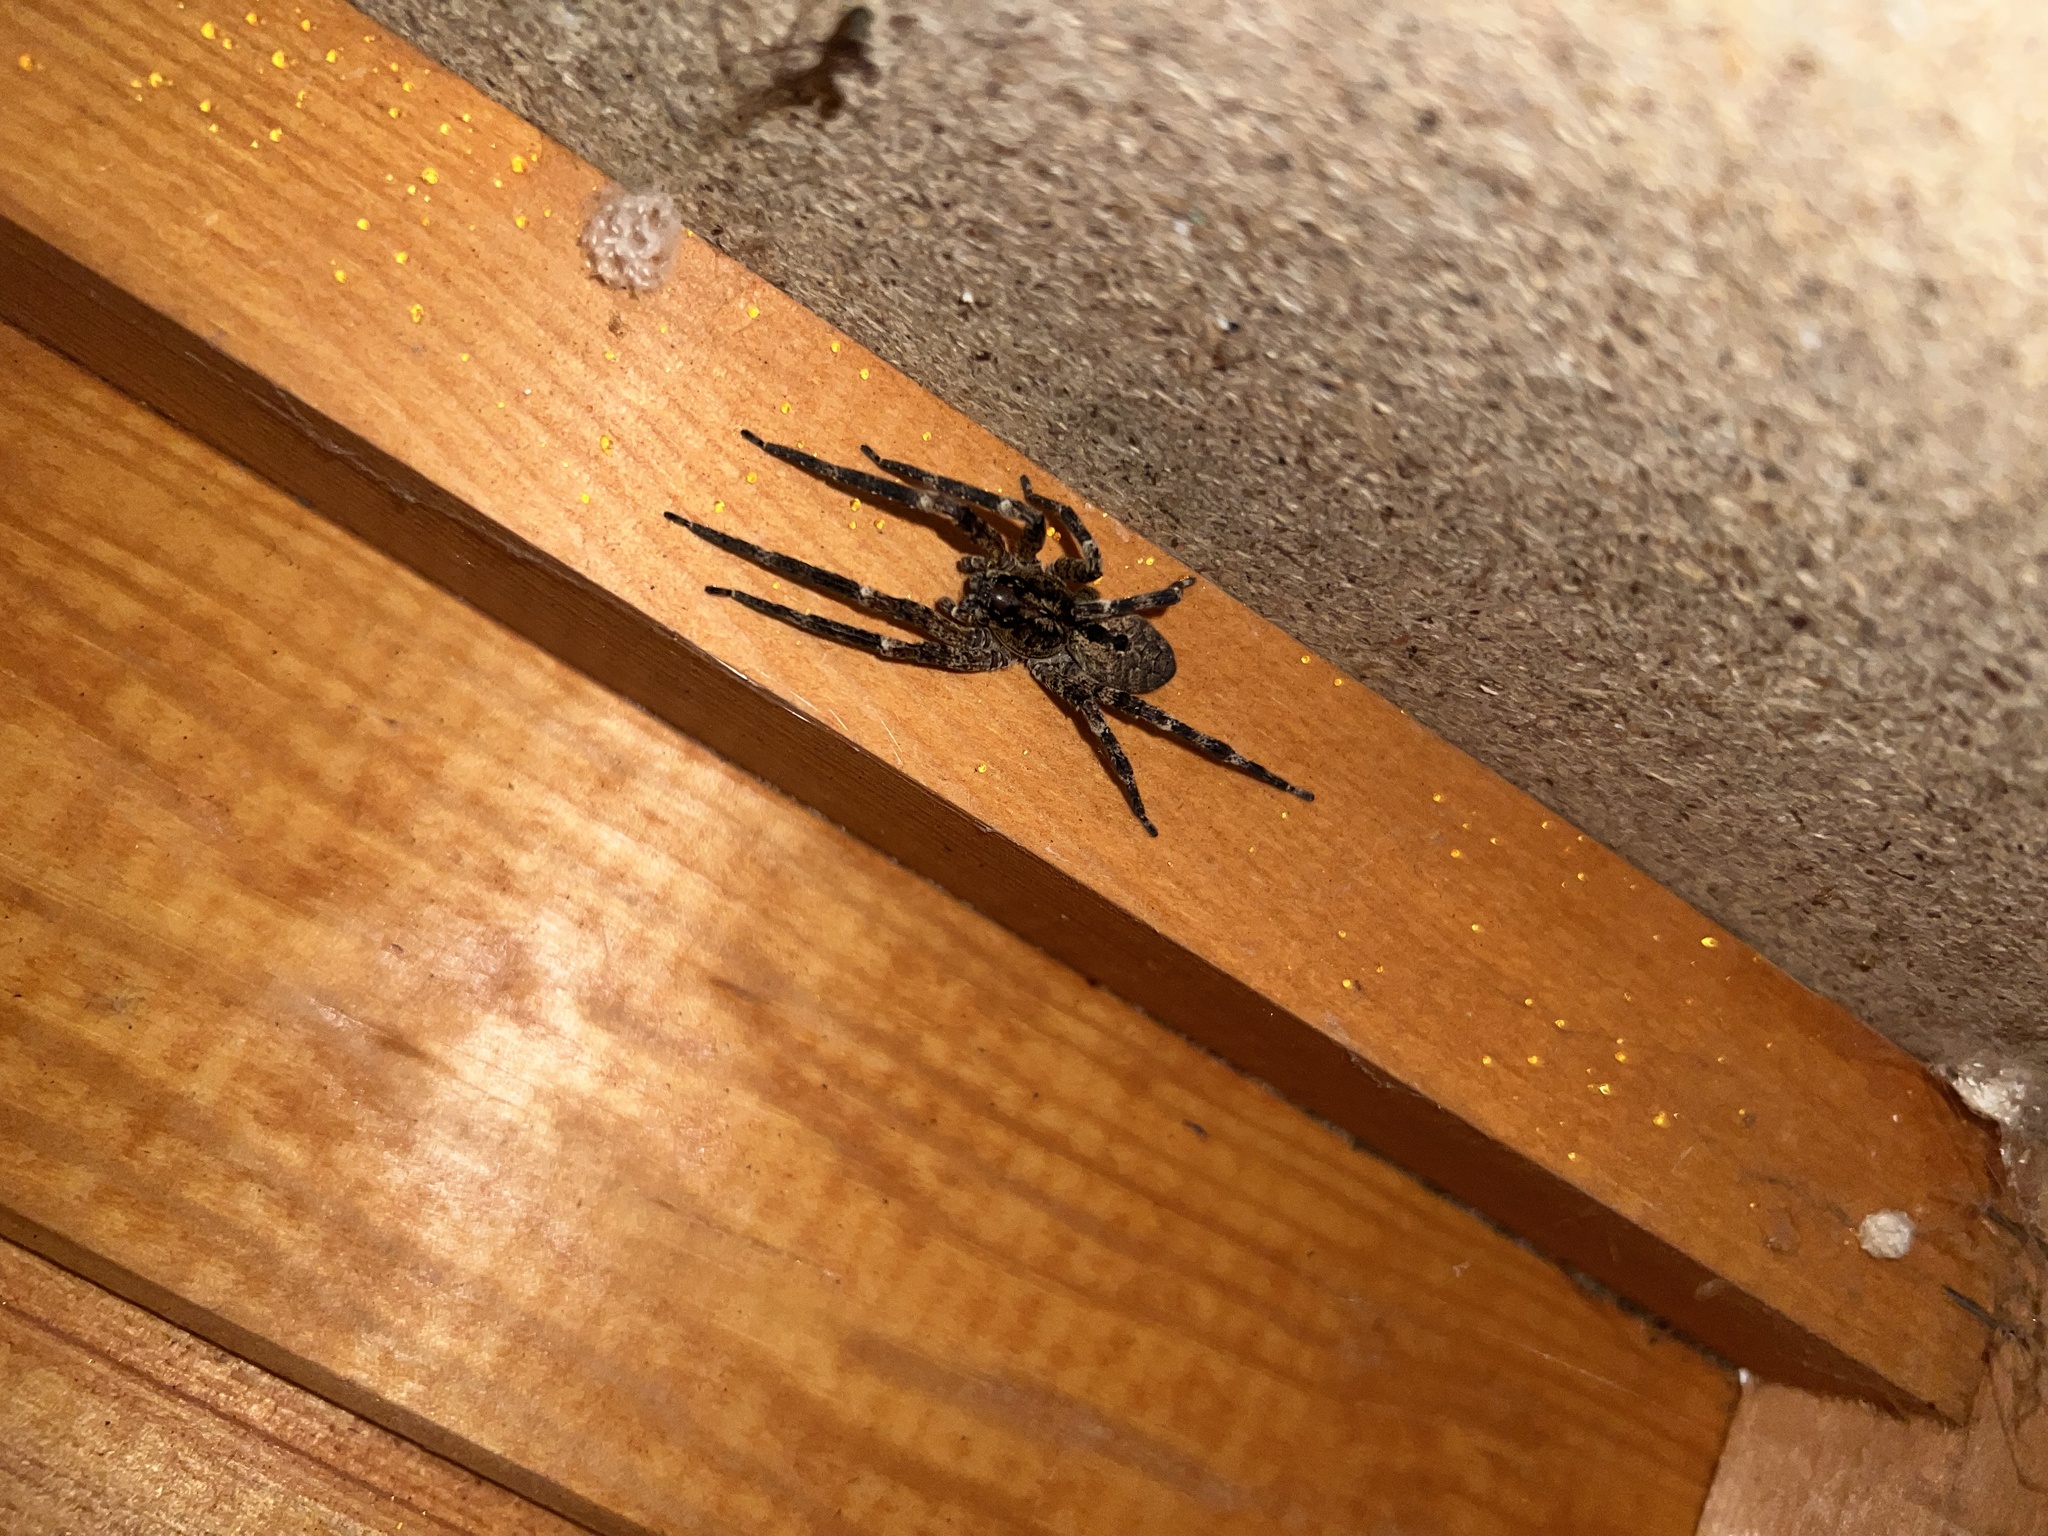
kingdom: Animalia
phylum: Arthropoda
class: Arachnida
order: Araneae
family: Zoropsidae
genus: Zoropsis
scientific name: Zoropsis spinimana
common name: Zoropsid spider
